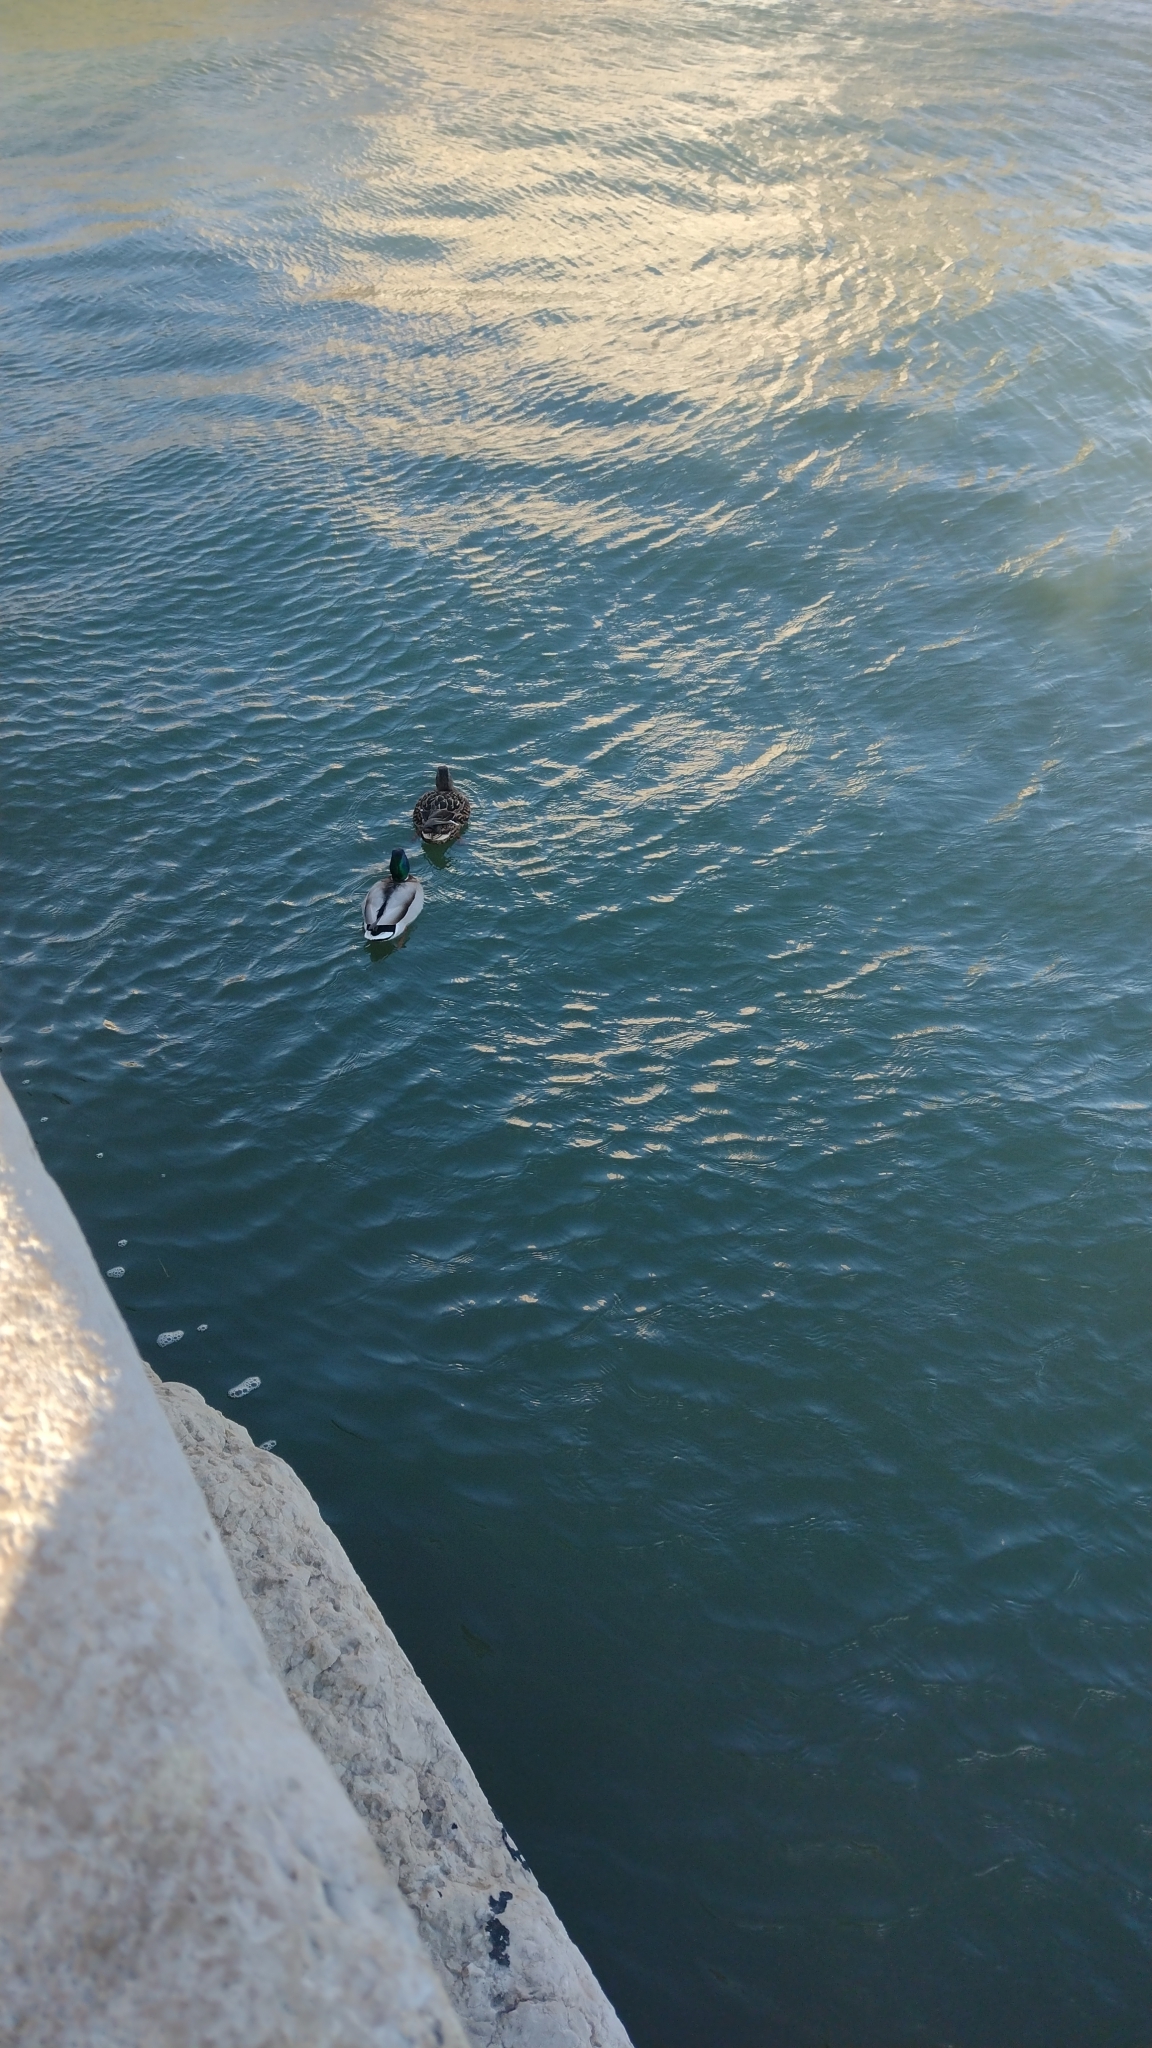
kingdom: Animalia
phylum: Chordata
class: Aves
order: Anseriformes
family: Anatidae
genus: Anas
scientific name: Anas platyrhynchos
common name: Mallard
